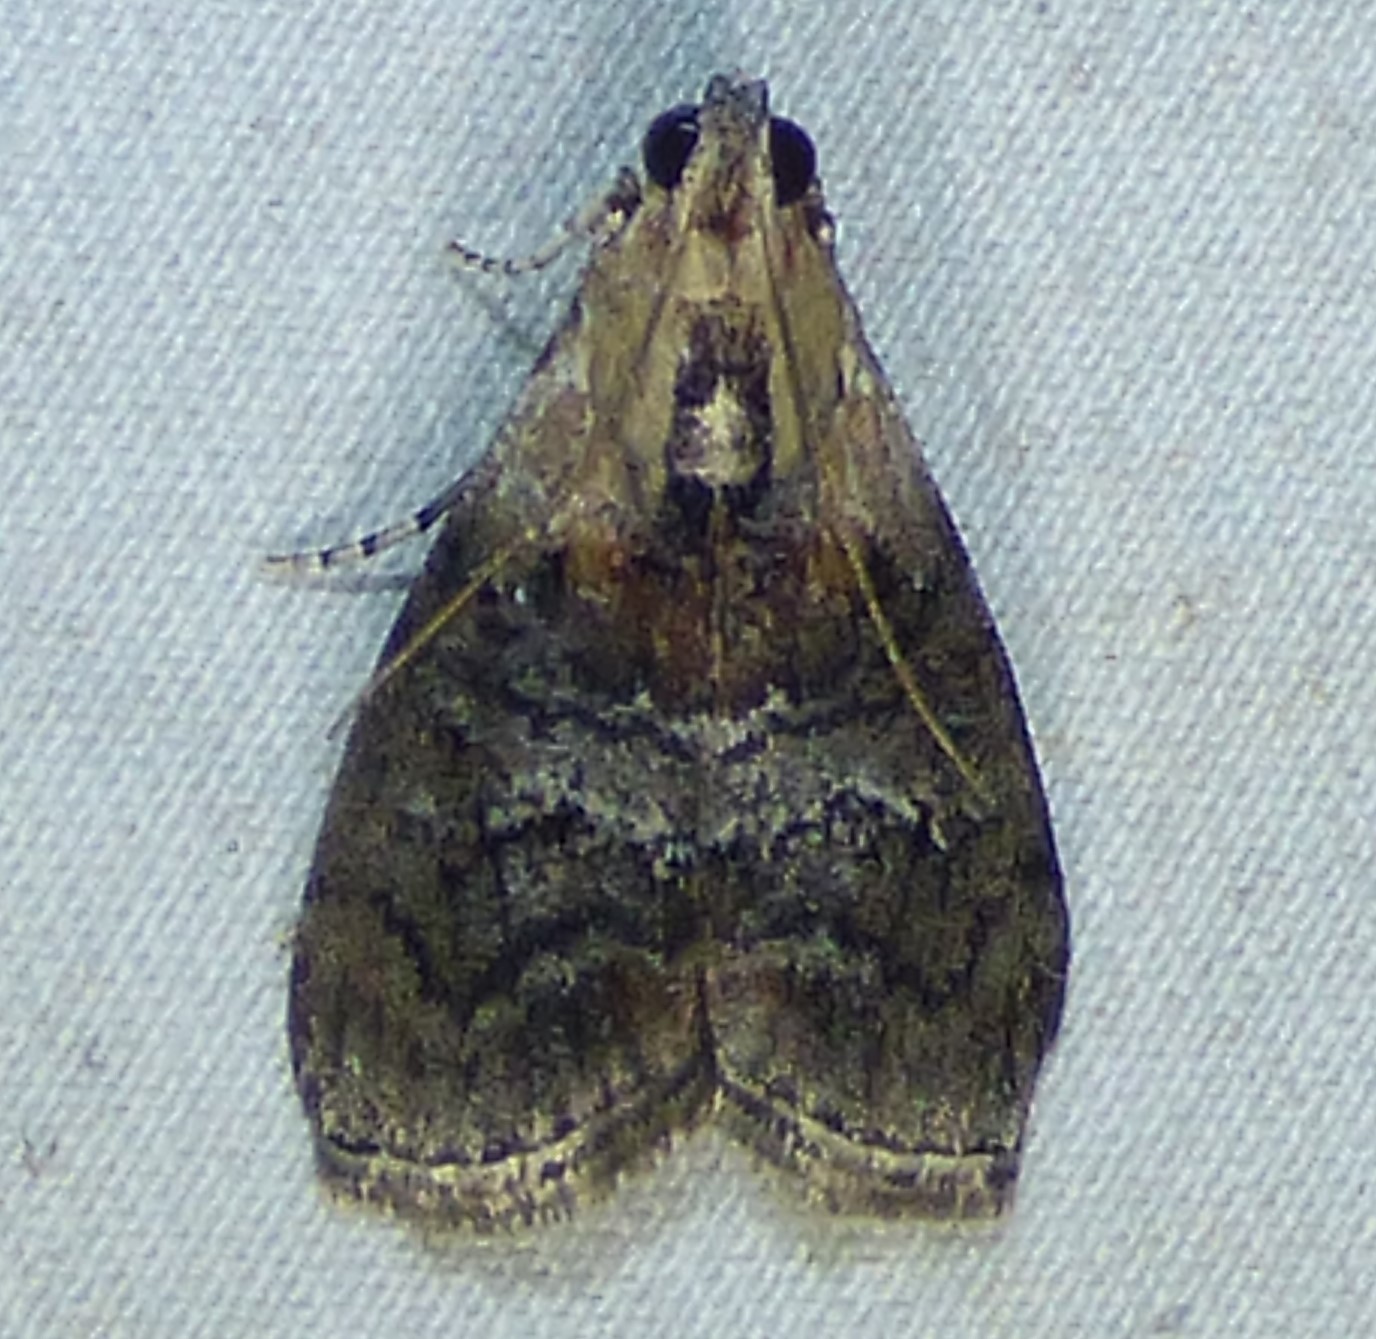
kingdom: Animalia
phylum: Arthropoda
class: Insecta
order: Lepidoptera
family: Pyralidae
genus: Pococera
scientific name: Pococera expandens
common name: Striped oak webworm moth
